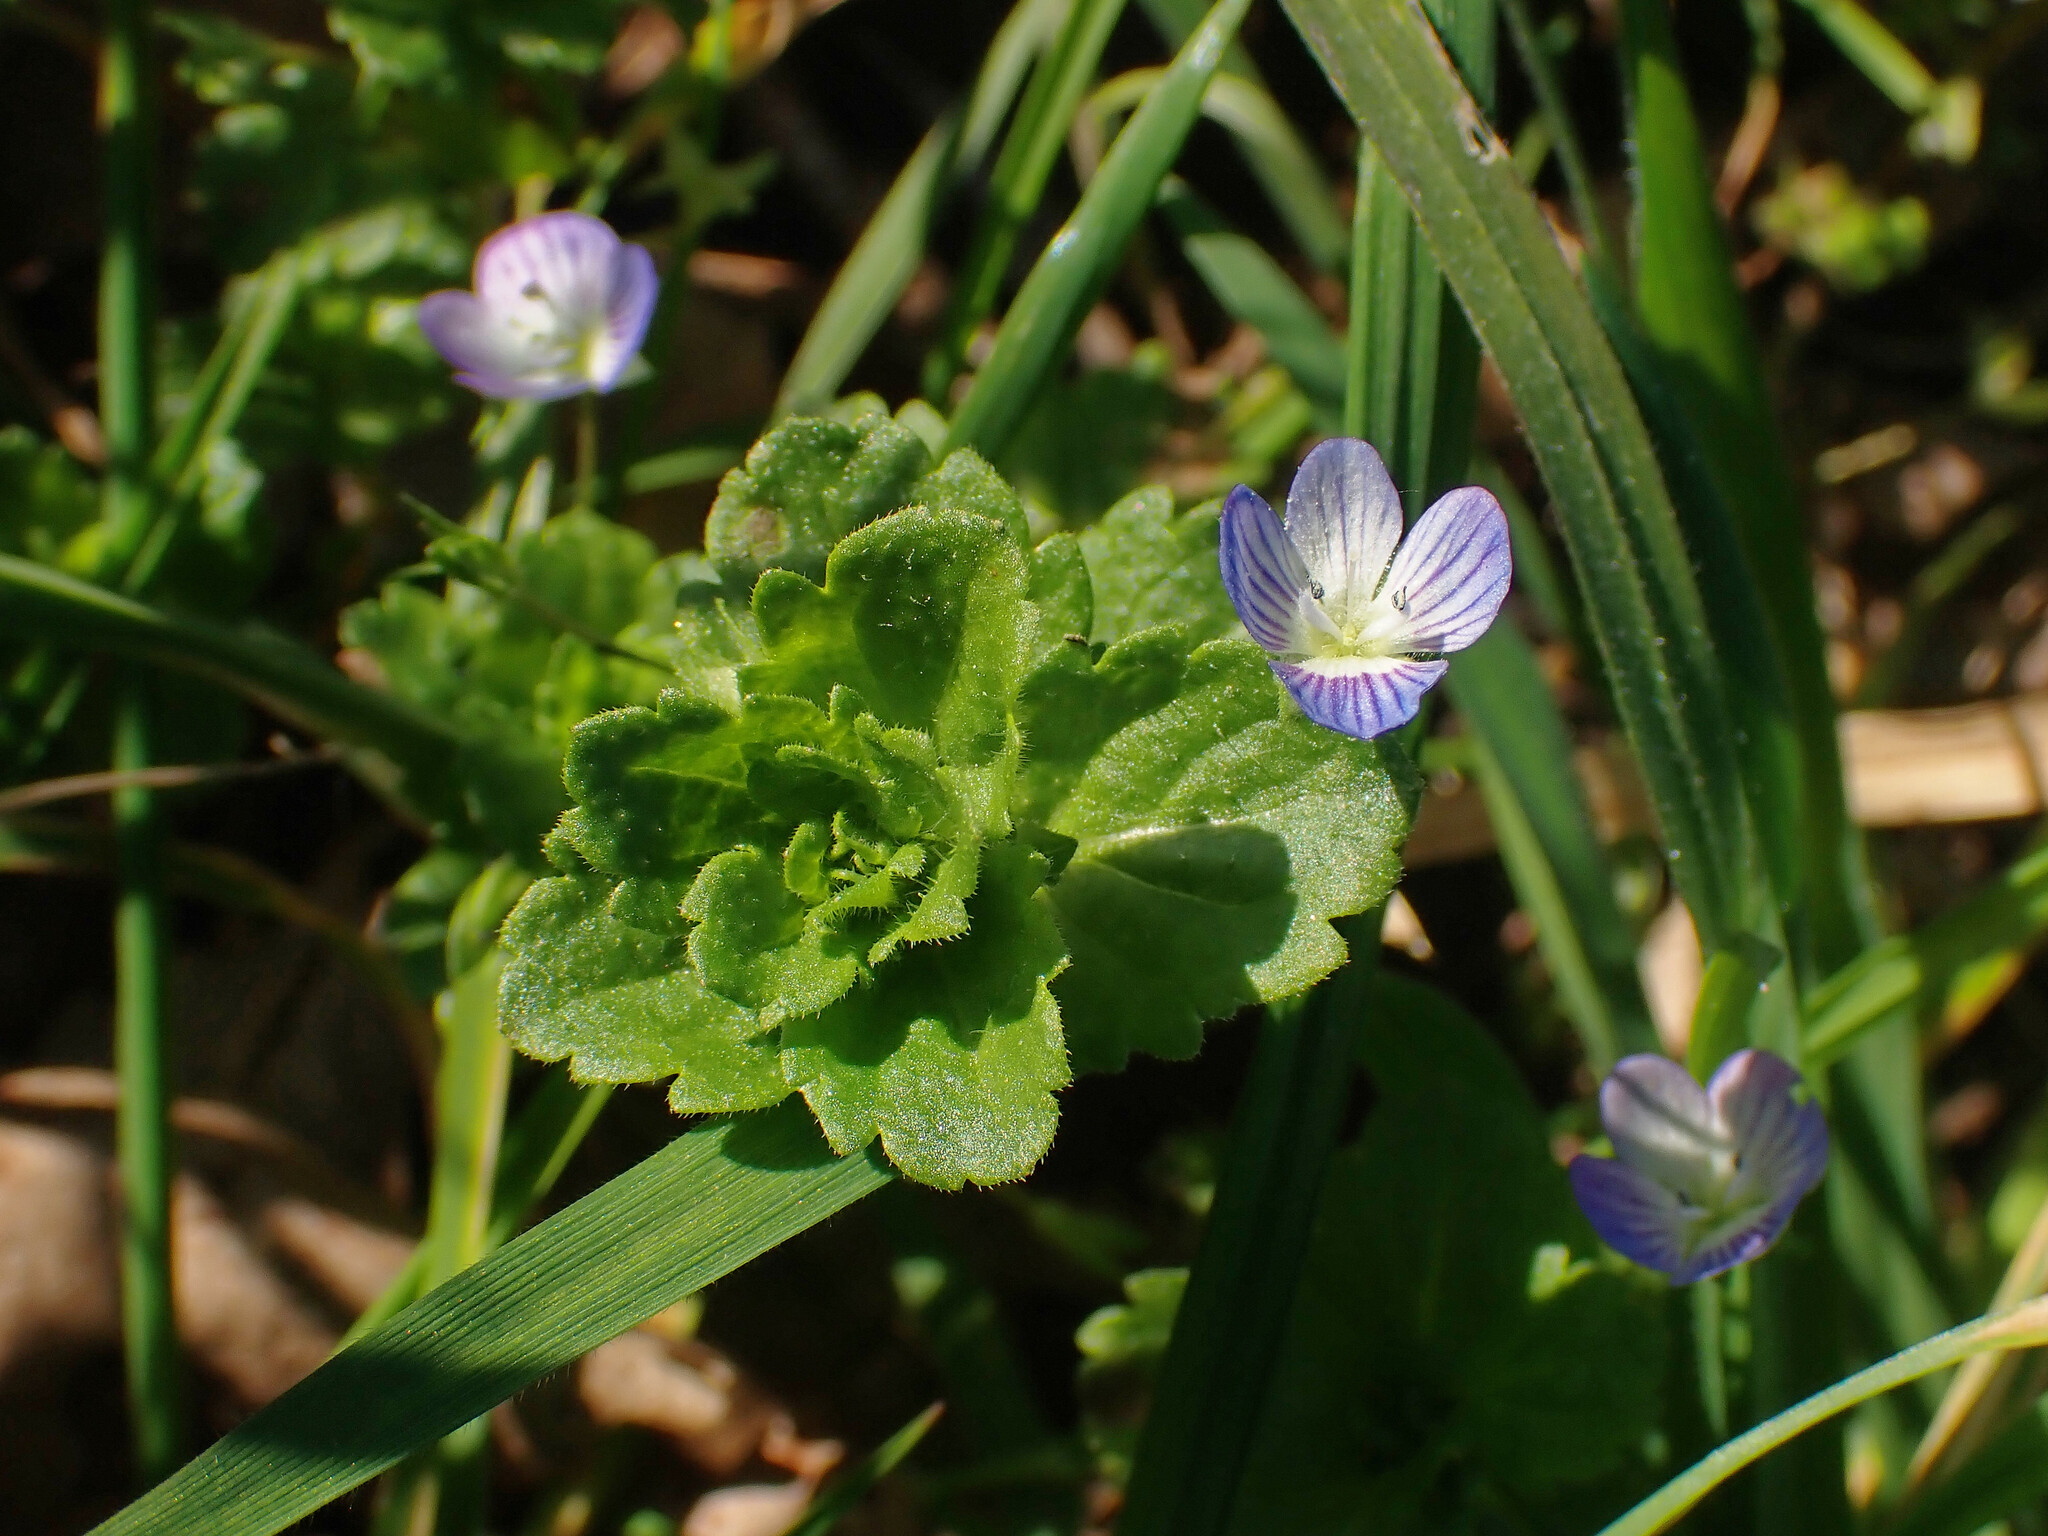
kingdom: Plantae
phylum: Tracheophyta
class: Magnoliopsida
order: Lamiales
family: Plantaginaceae
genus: Veronica
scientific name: Veronica persica
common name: Common field-speedwell
